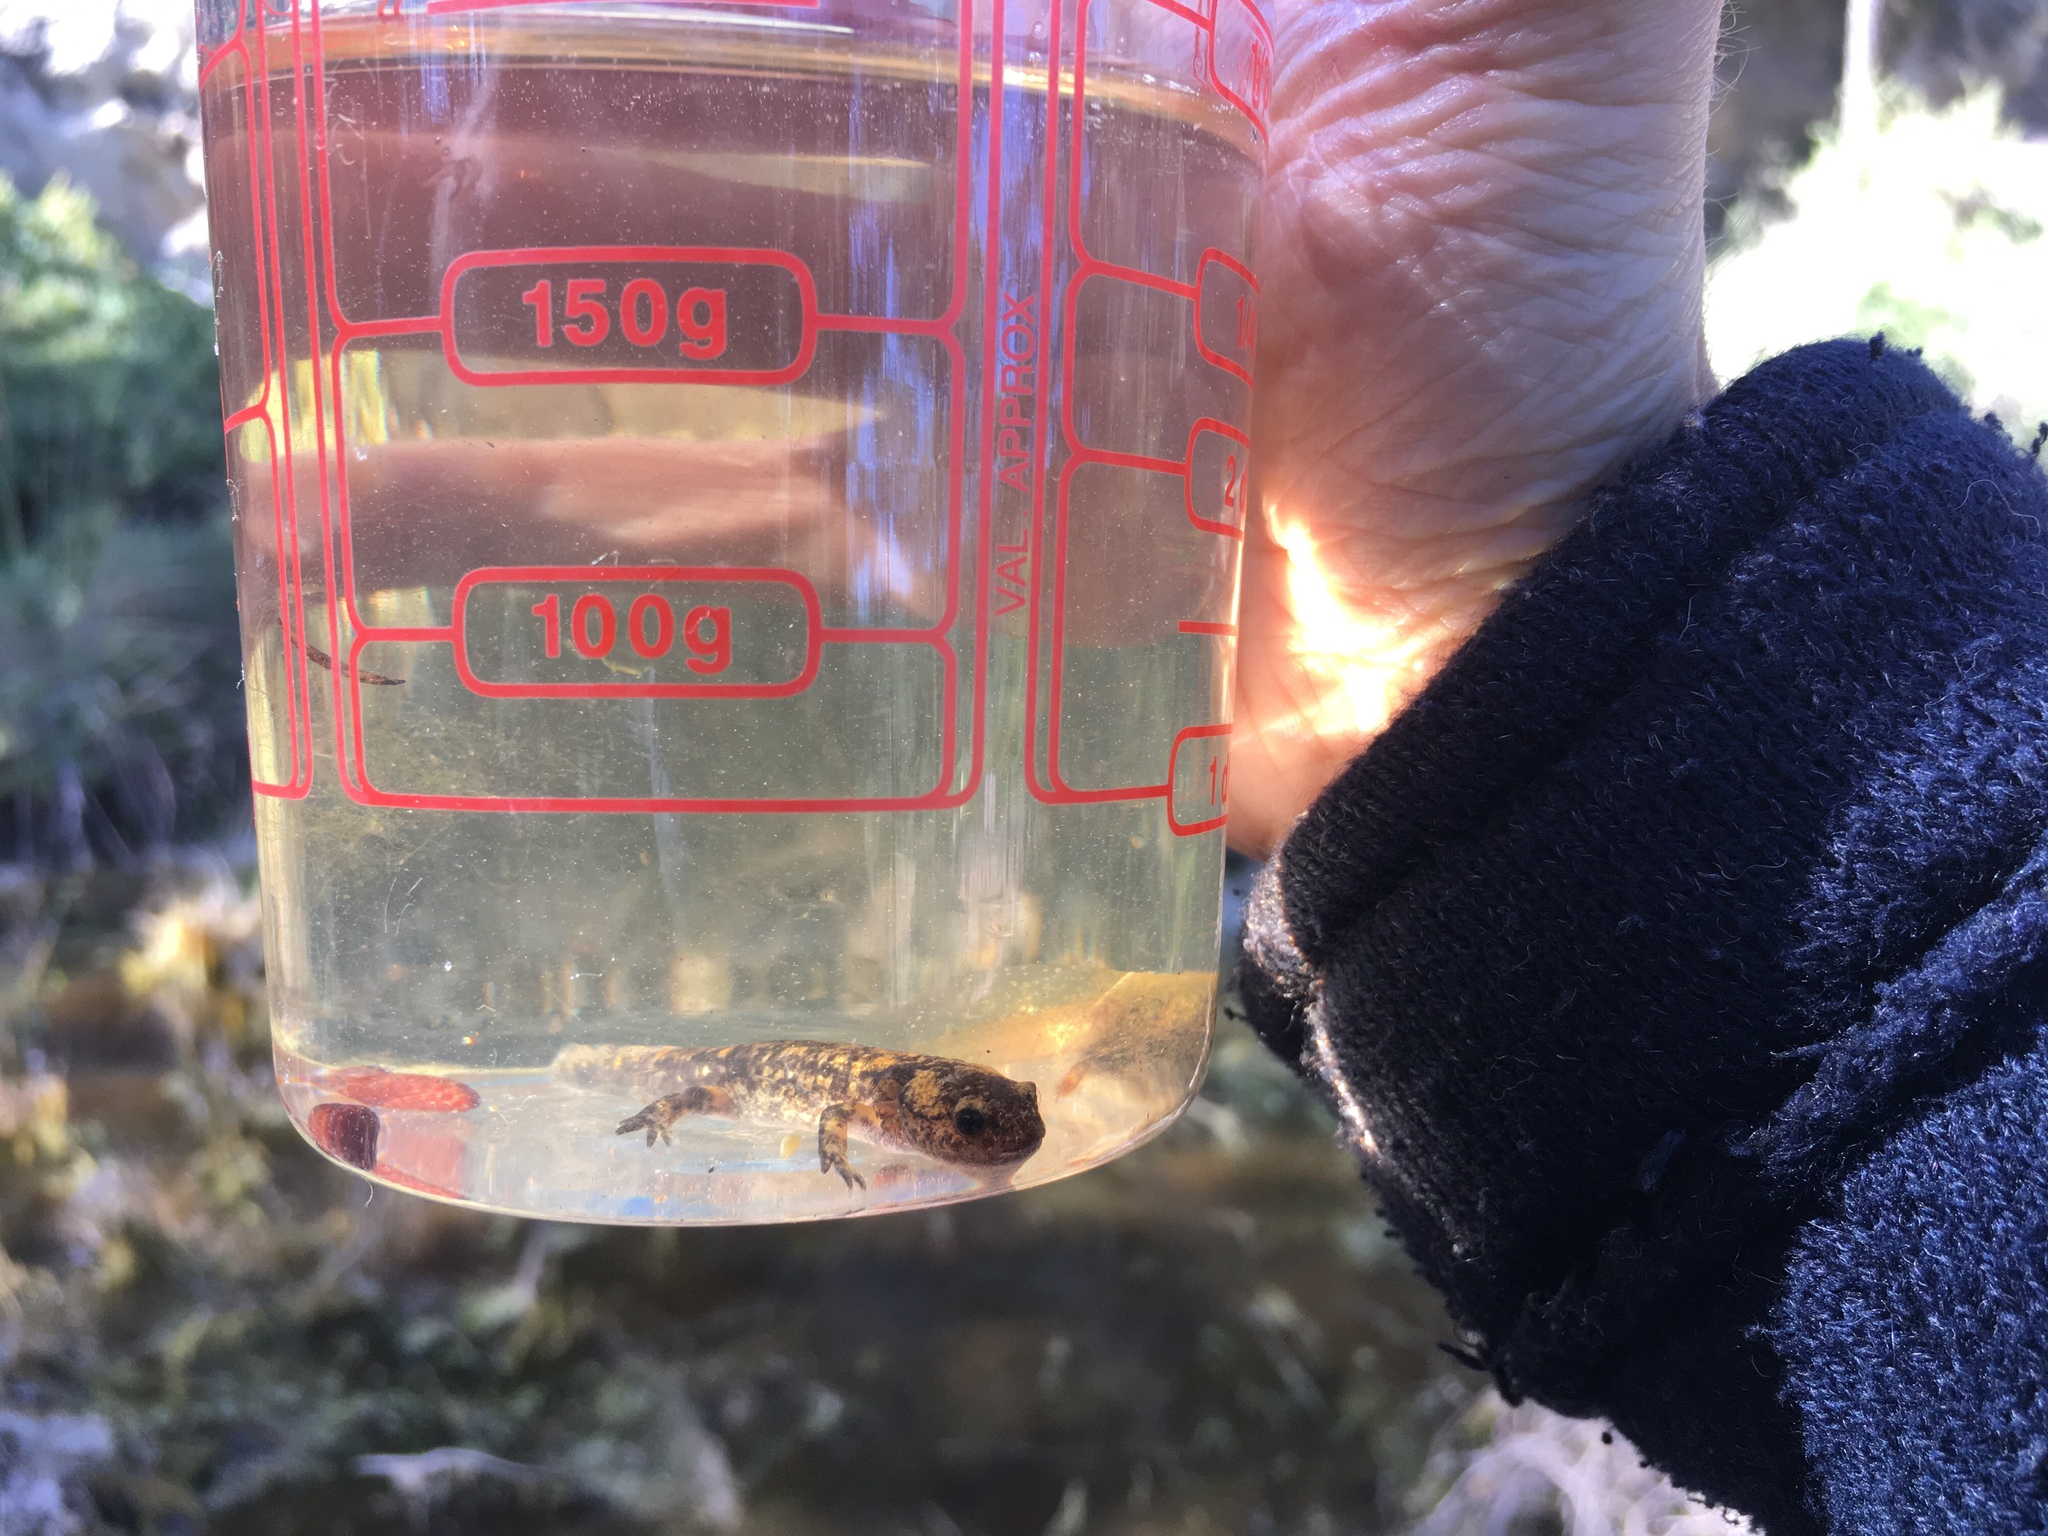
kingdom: Animalia
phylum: Chordata
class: Amphibia
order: Caudata
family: Salamandridae
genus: Salamandra
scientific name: Salamandra salamandra
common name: Fire salamander
